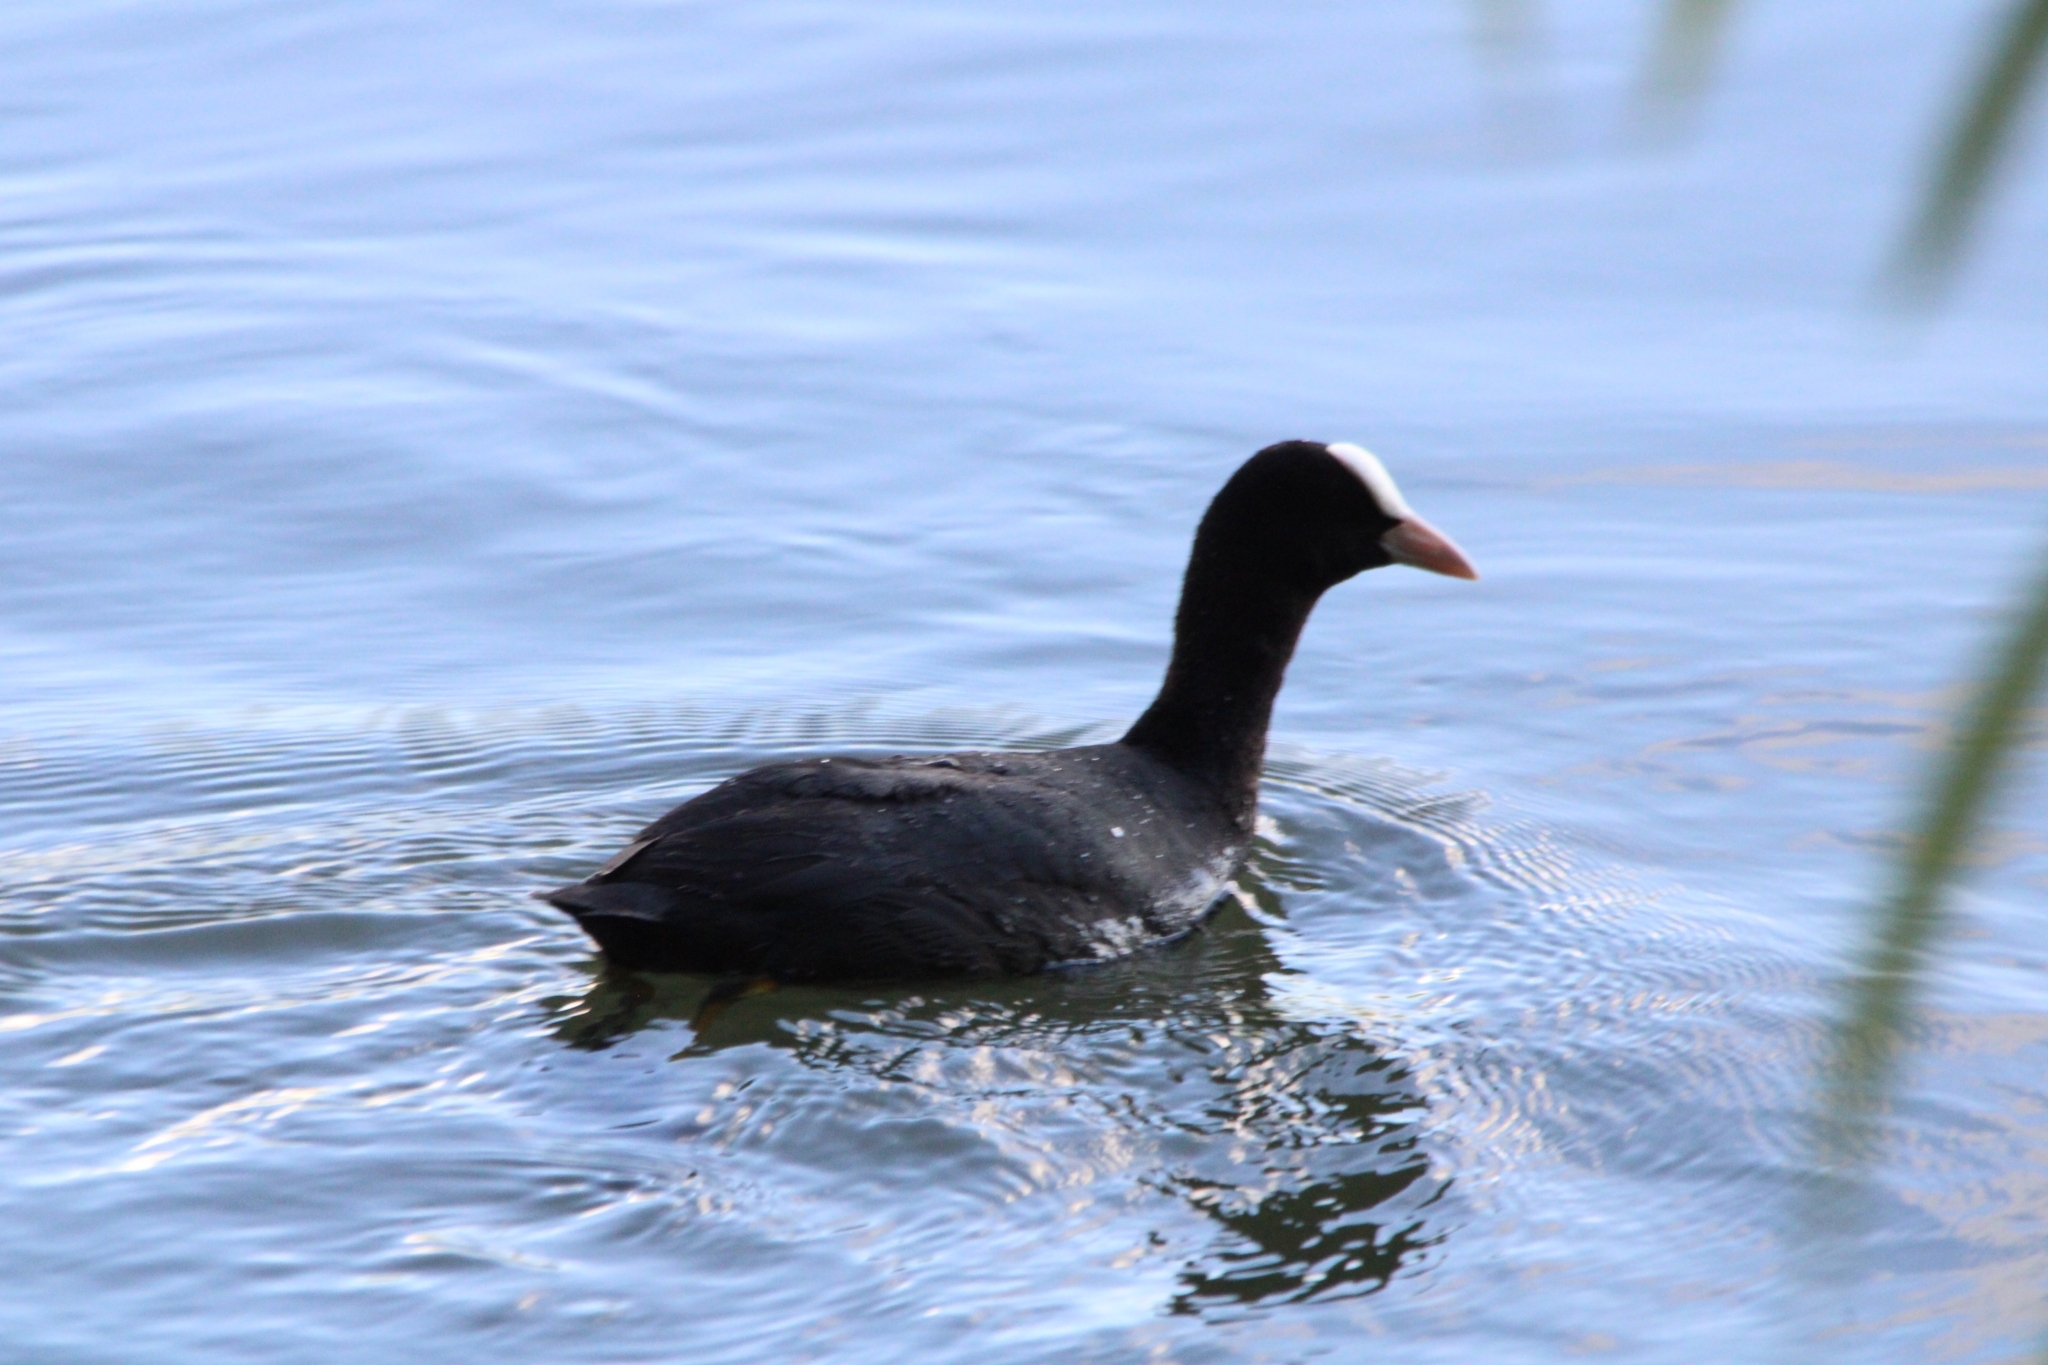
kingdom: Animalia
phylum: Chordata
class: Aves
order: Gruiformes
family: Rallidae
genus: Fulica
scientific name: Fulica atra
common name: Eurasian coot
